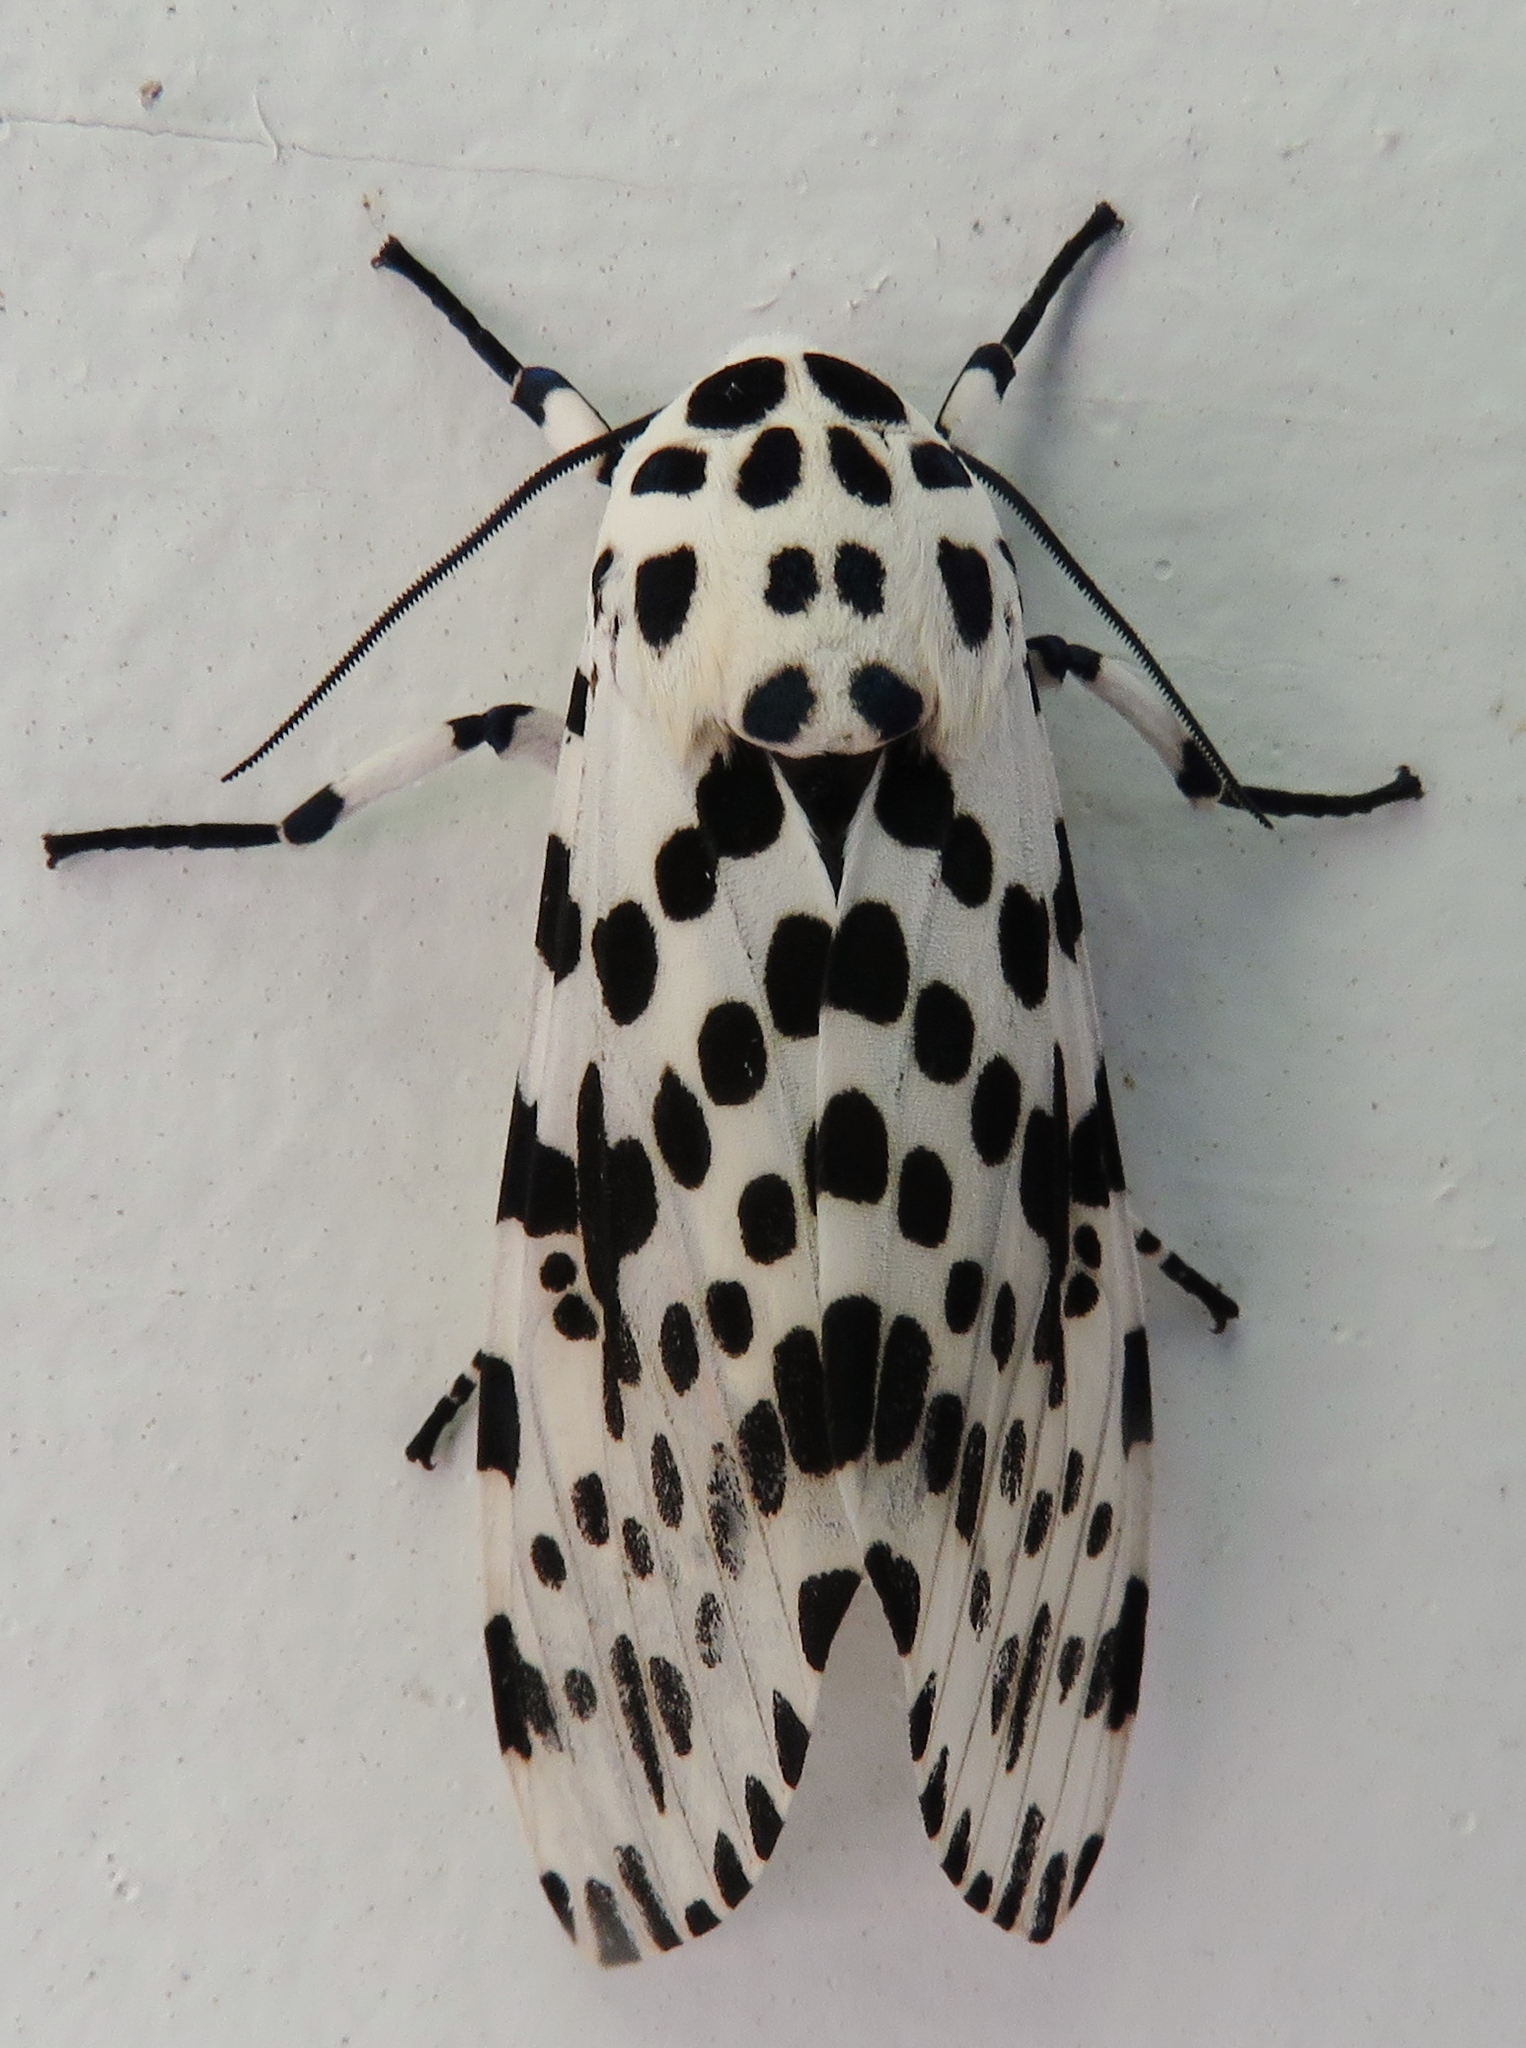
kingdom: Animalia
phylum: Arthropoda
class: Insecta
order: Lepidoptera
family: Erebidae
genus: Hypercompe
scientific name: Hypercompe scribonia
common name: Giant leopard moth
